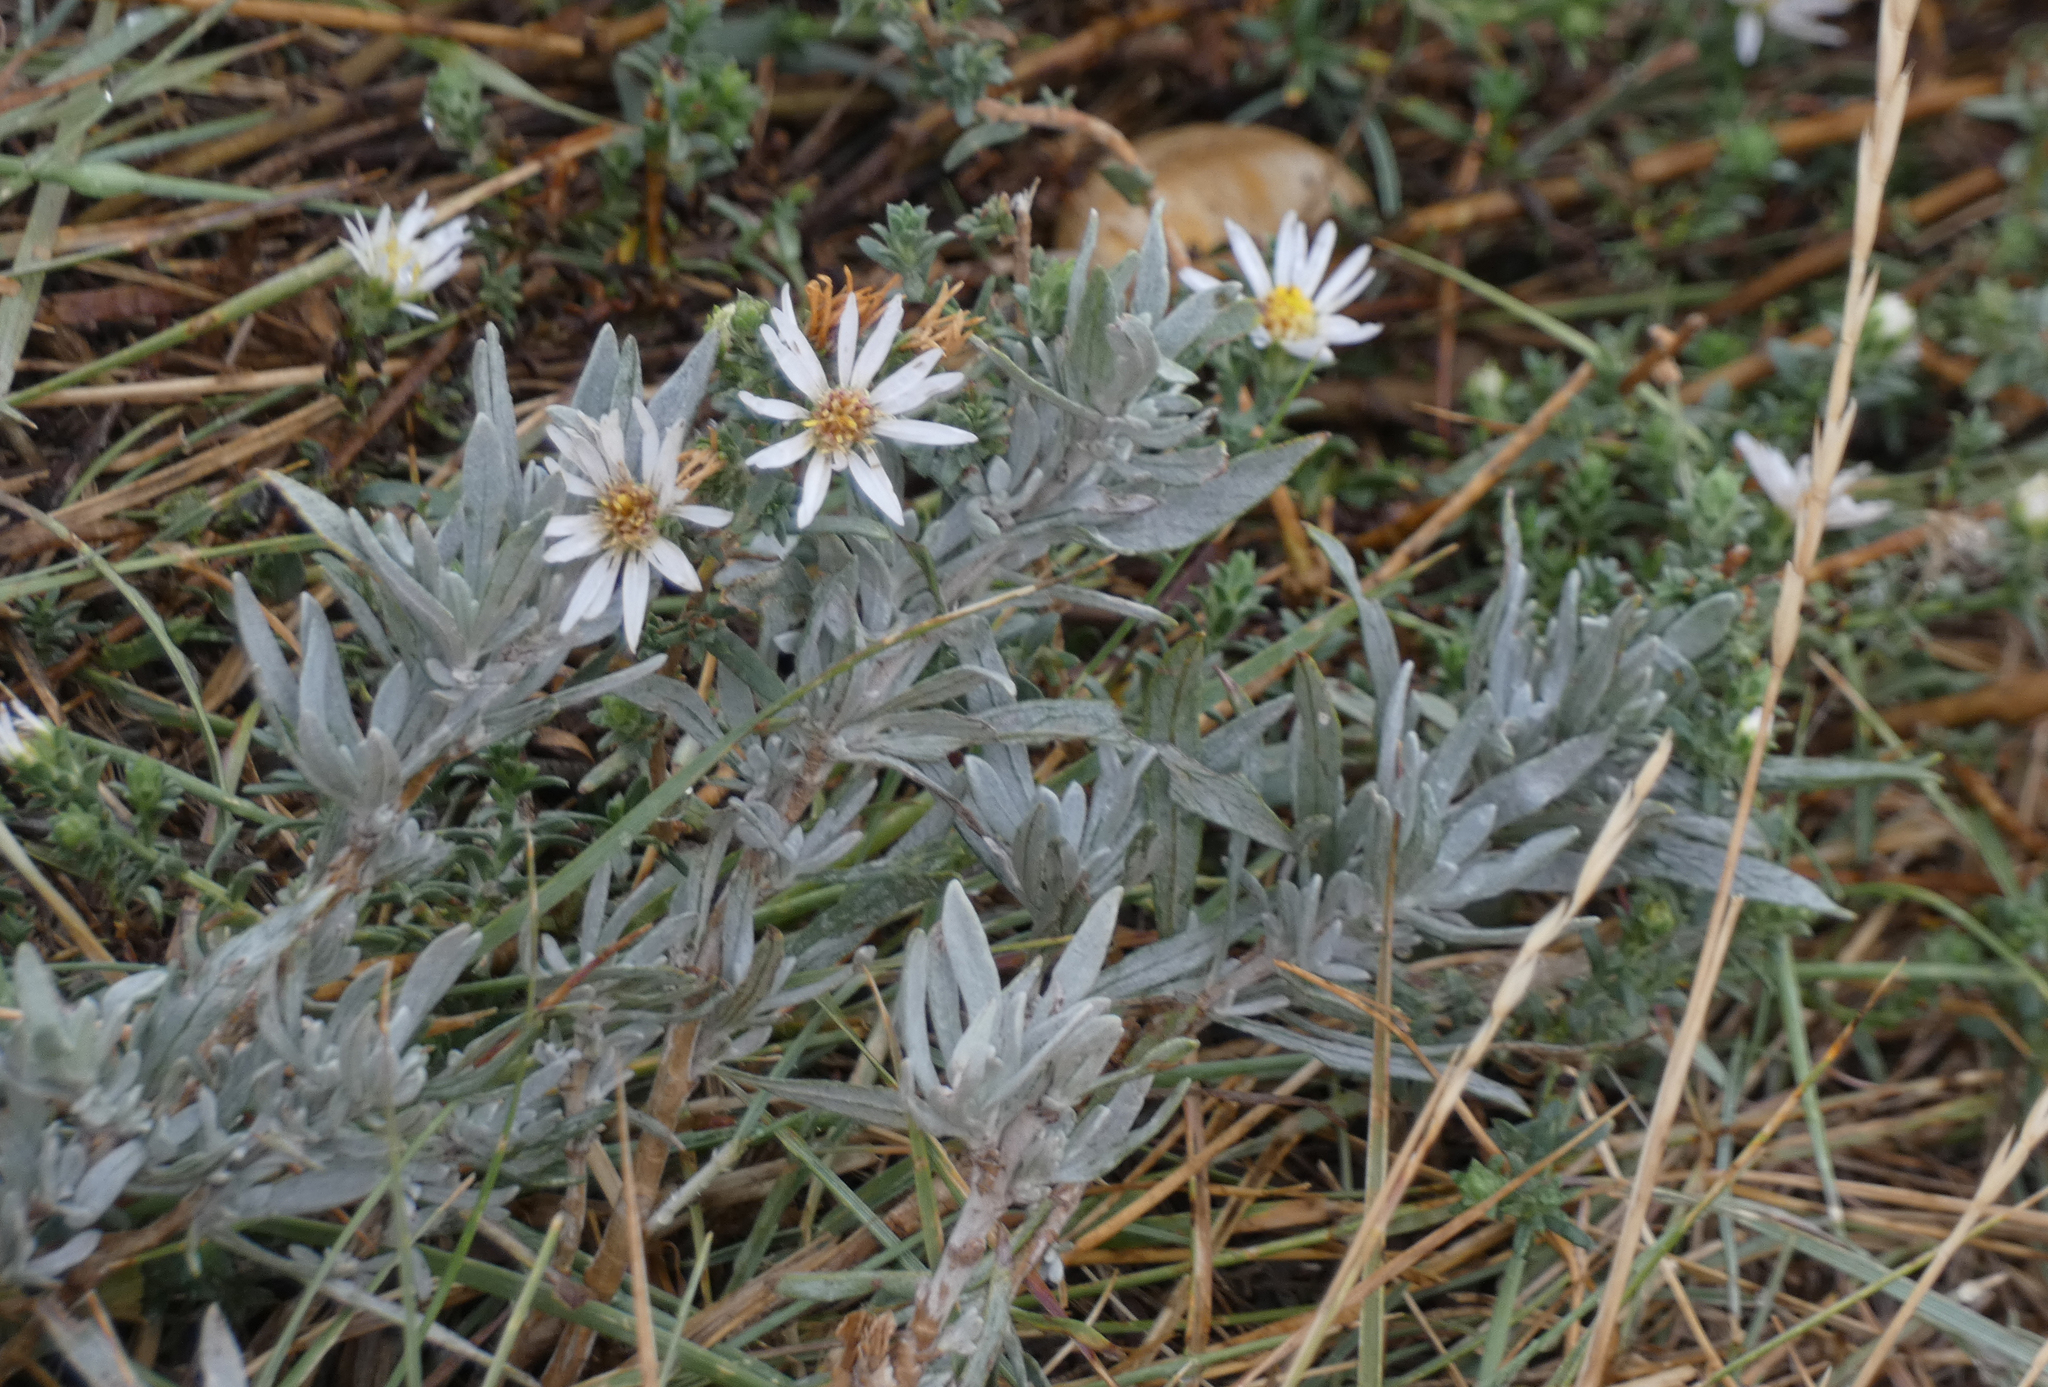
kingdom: Plantae
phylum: Tracheophyta
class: Magnoliopsida
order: Asterales
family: Asteraceae
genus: Artemisia
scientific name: Artemisia cana
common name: Silver sagebrush
